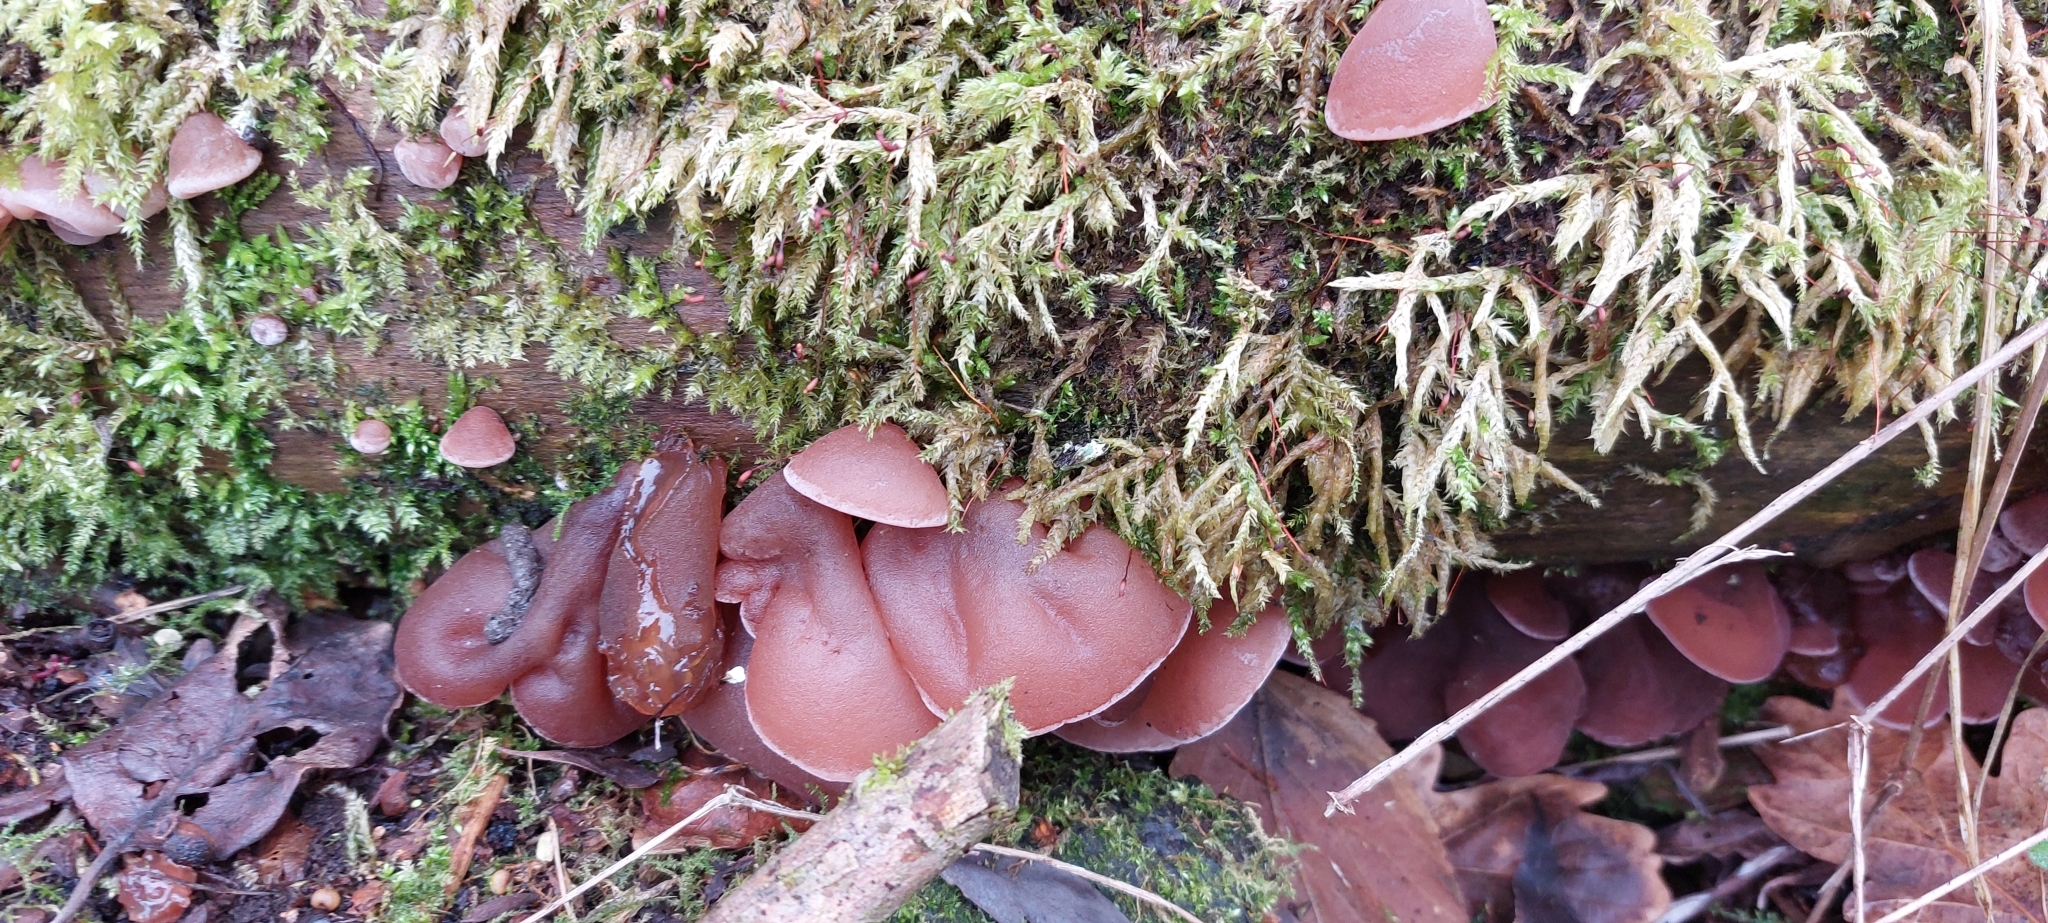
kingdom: Fungi
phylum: Basidiomycota
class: Agaricomycetes
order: Auriculariales
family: Auriculariaceae
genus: Auricularia
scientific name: Auricularia auricula-judae
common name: Jelly ear
